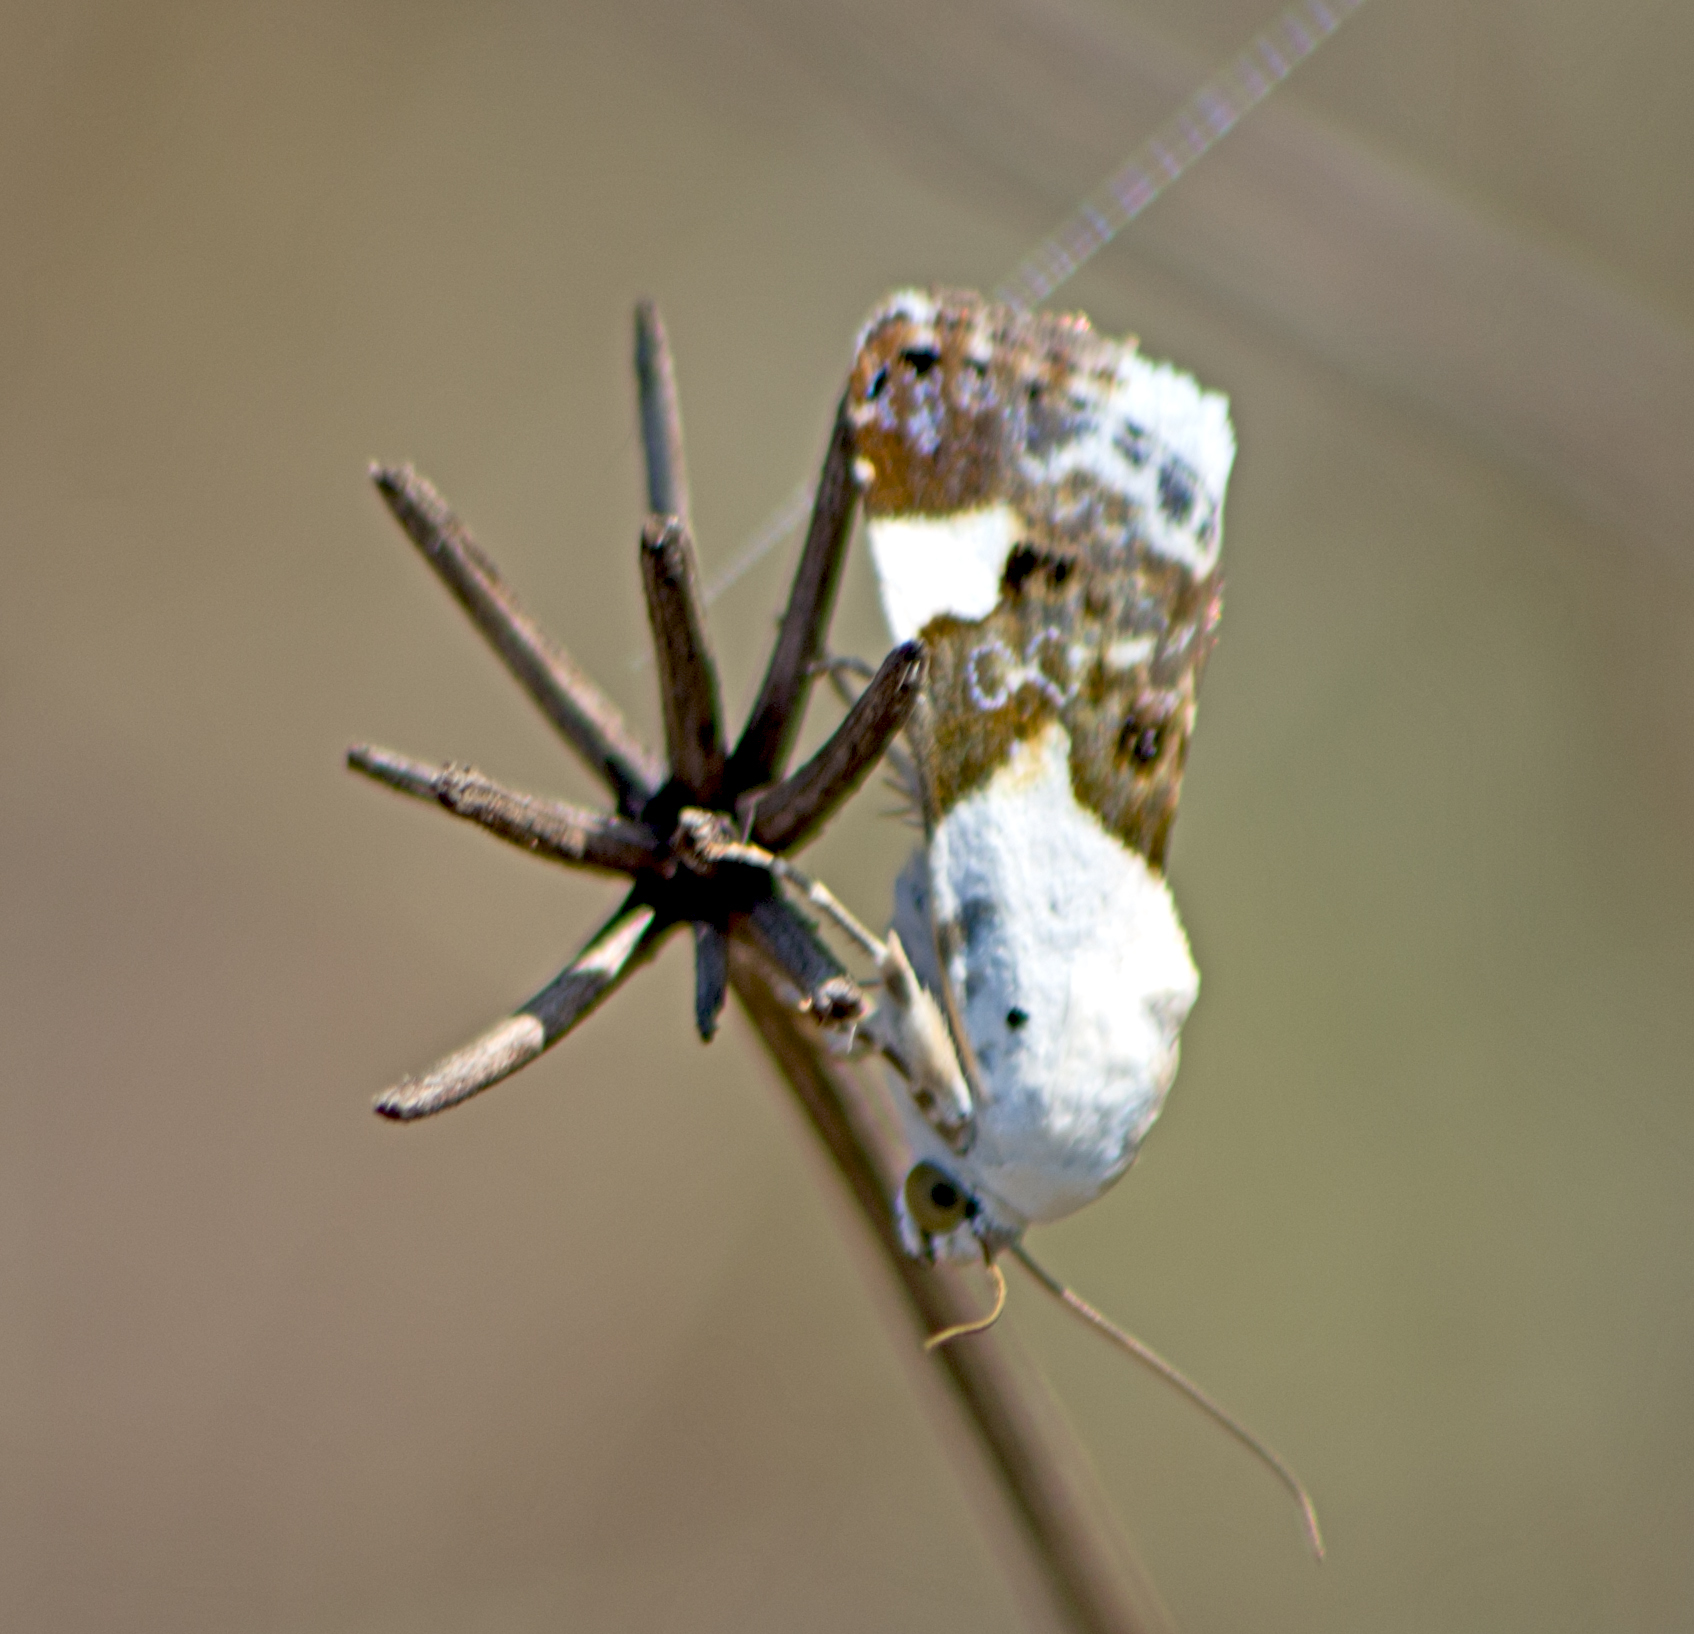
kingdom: Animalia
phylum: Arthropoda
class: Insecta
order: Lepidoptera
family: Noctuidae
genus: Acontia
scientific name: Acontia lucida
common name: Pale shoulder
